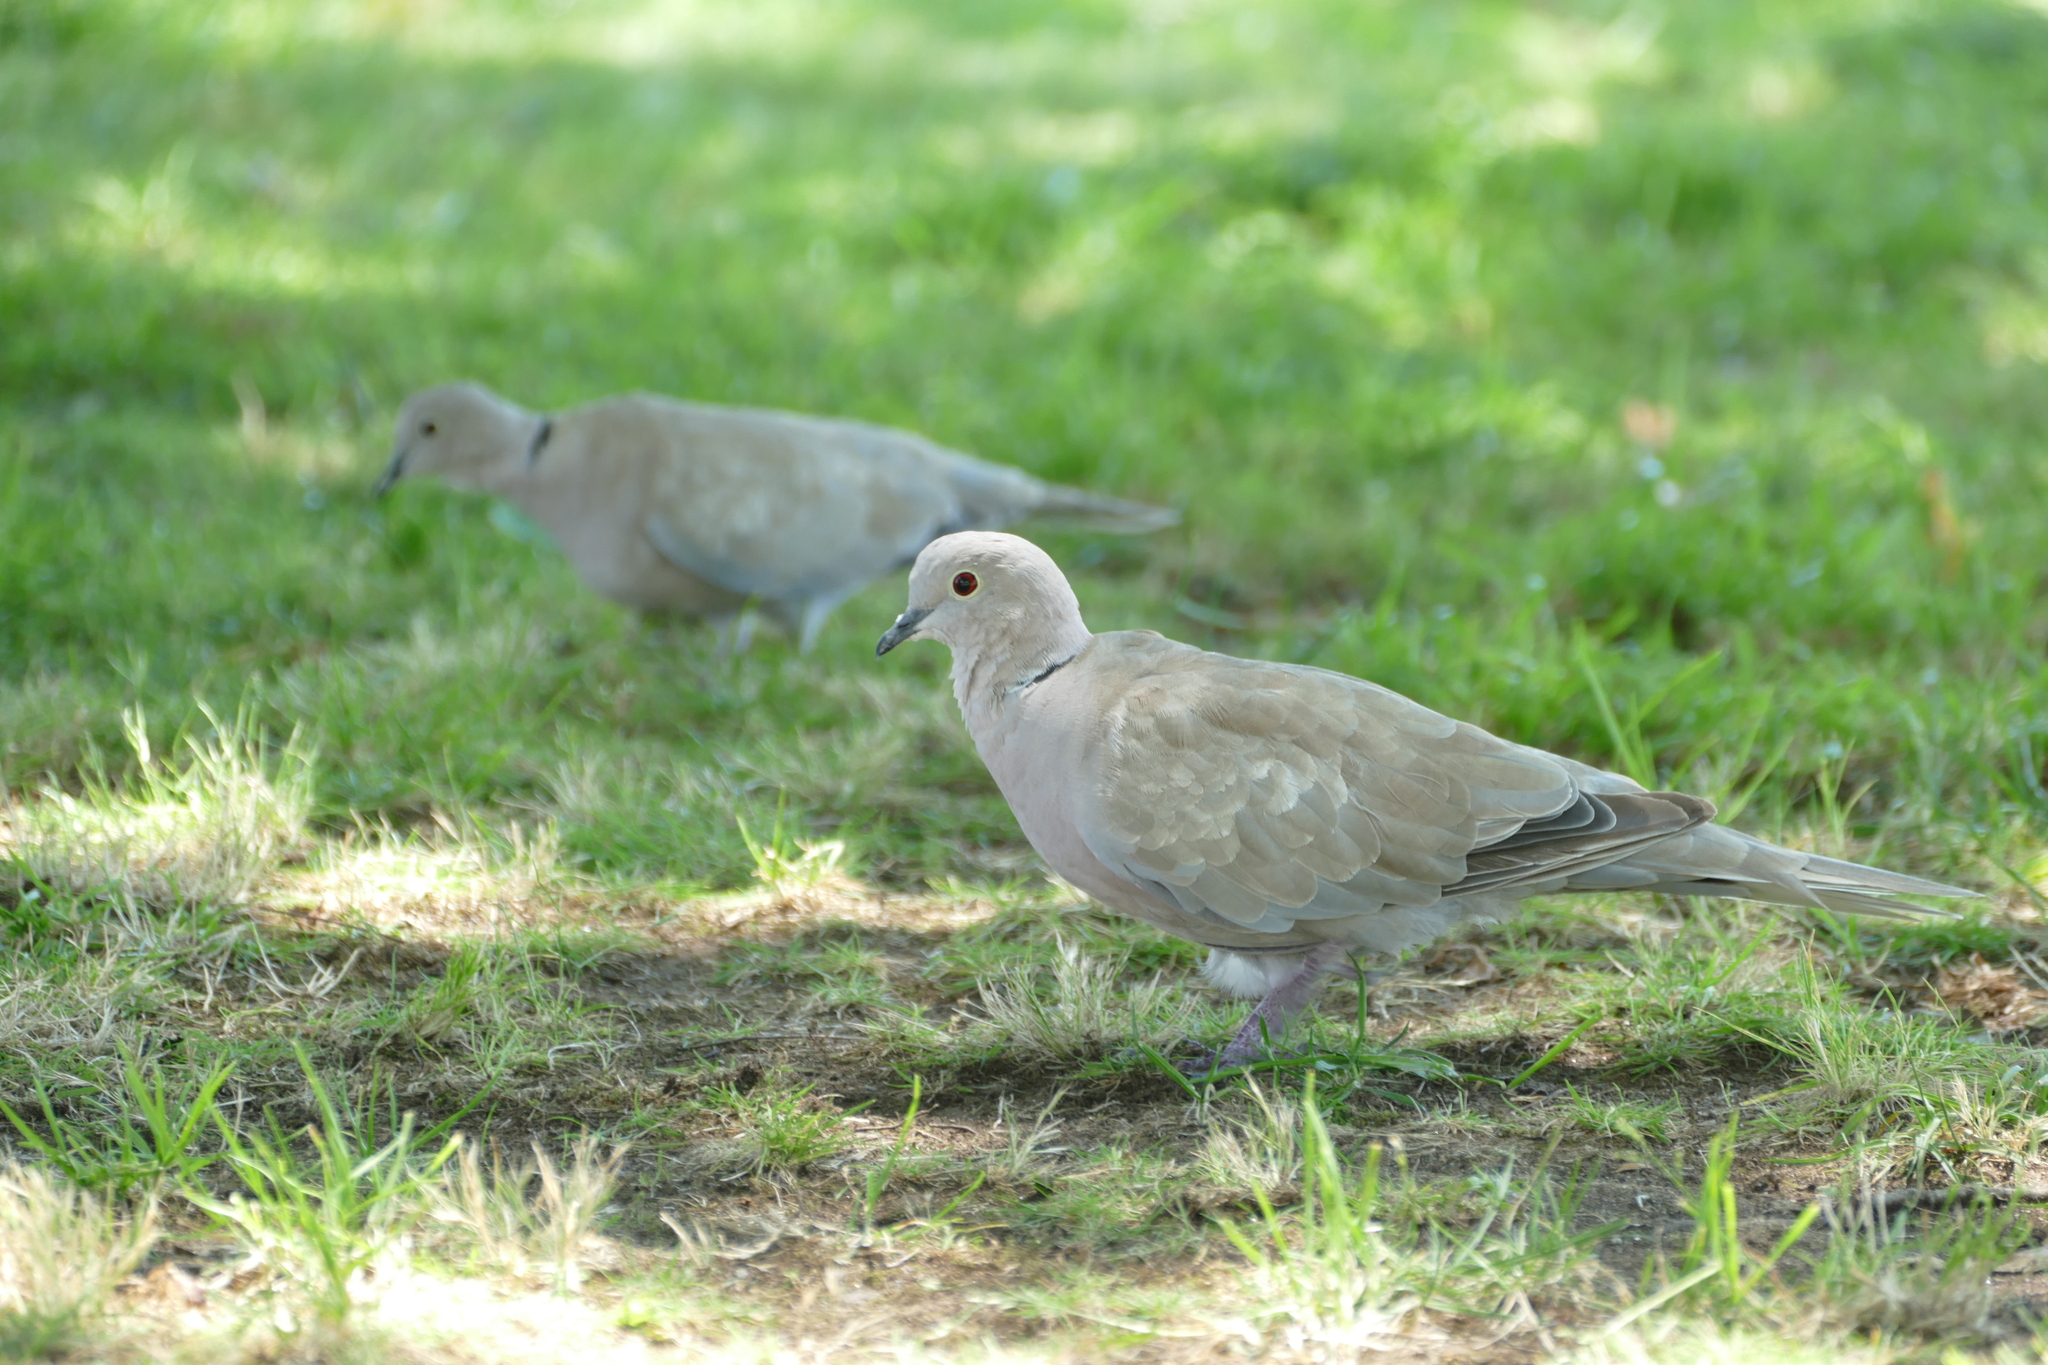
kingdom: Animalia
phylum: Chordata
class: Aves
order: Columbiformes
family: Columbidae
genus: Streptopelia
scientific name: Streptopelia decaocto
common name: Eurasian collared dove
